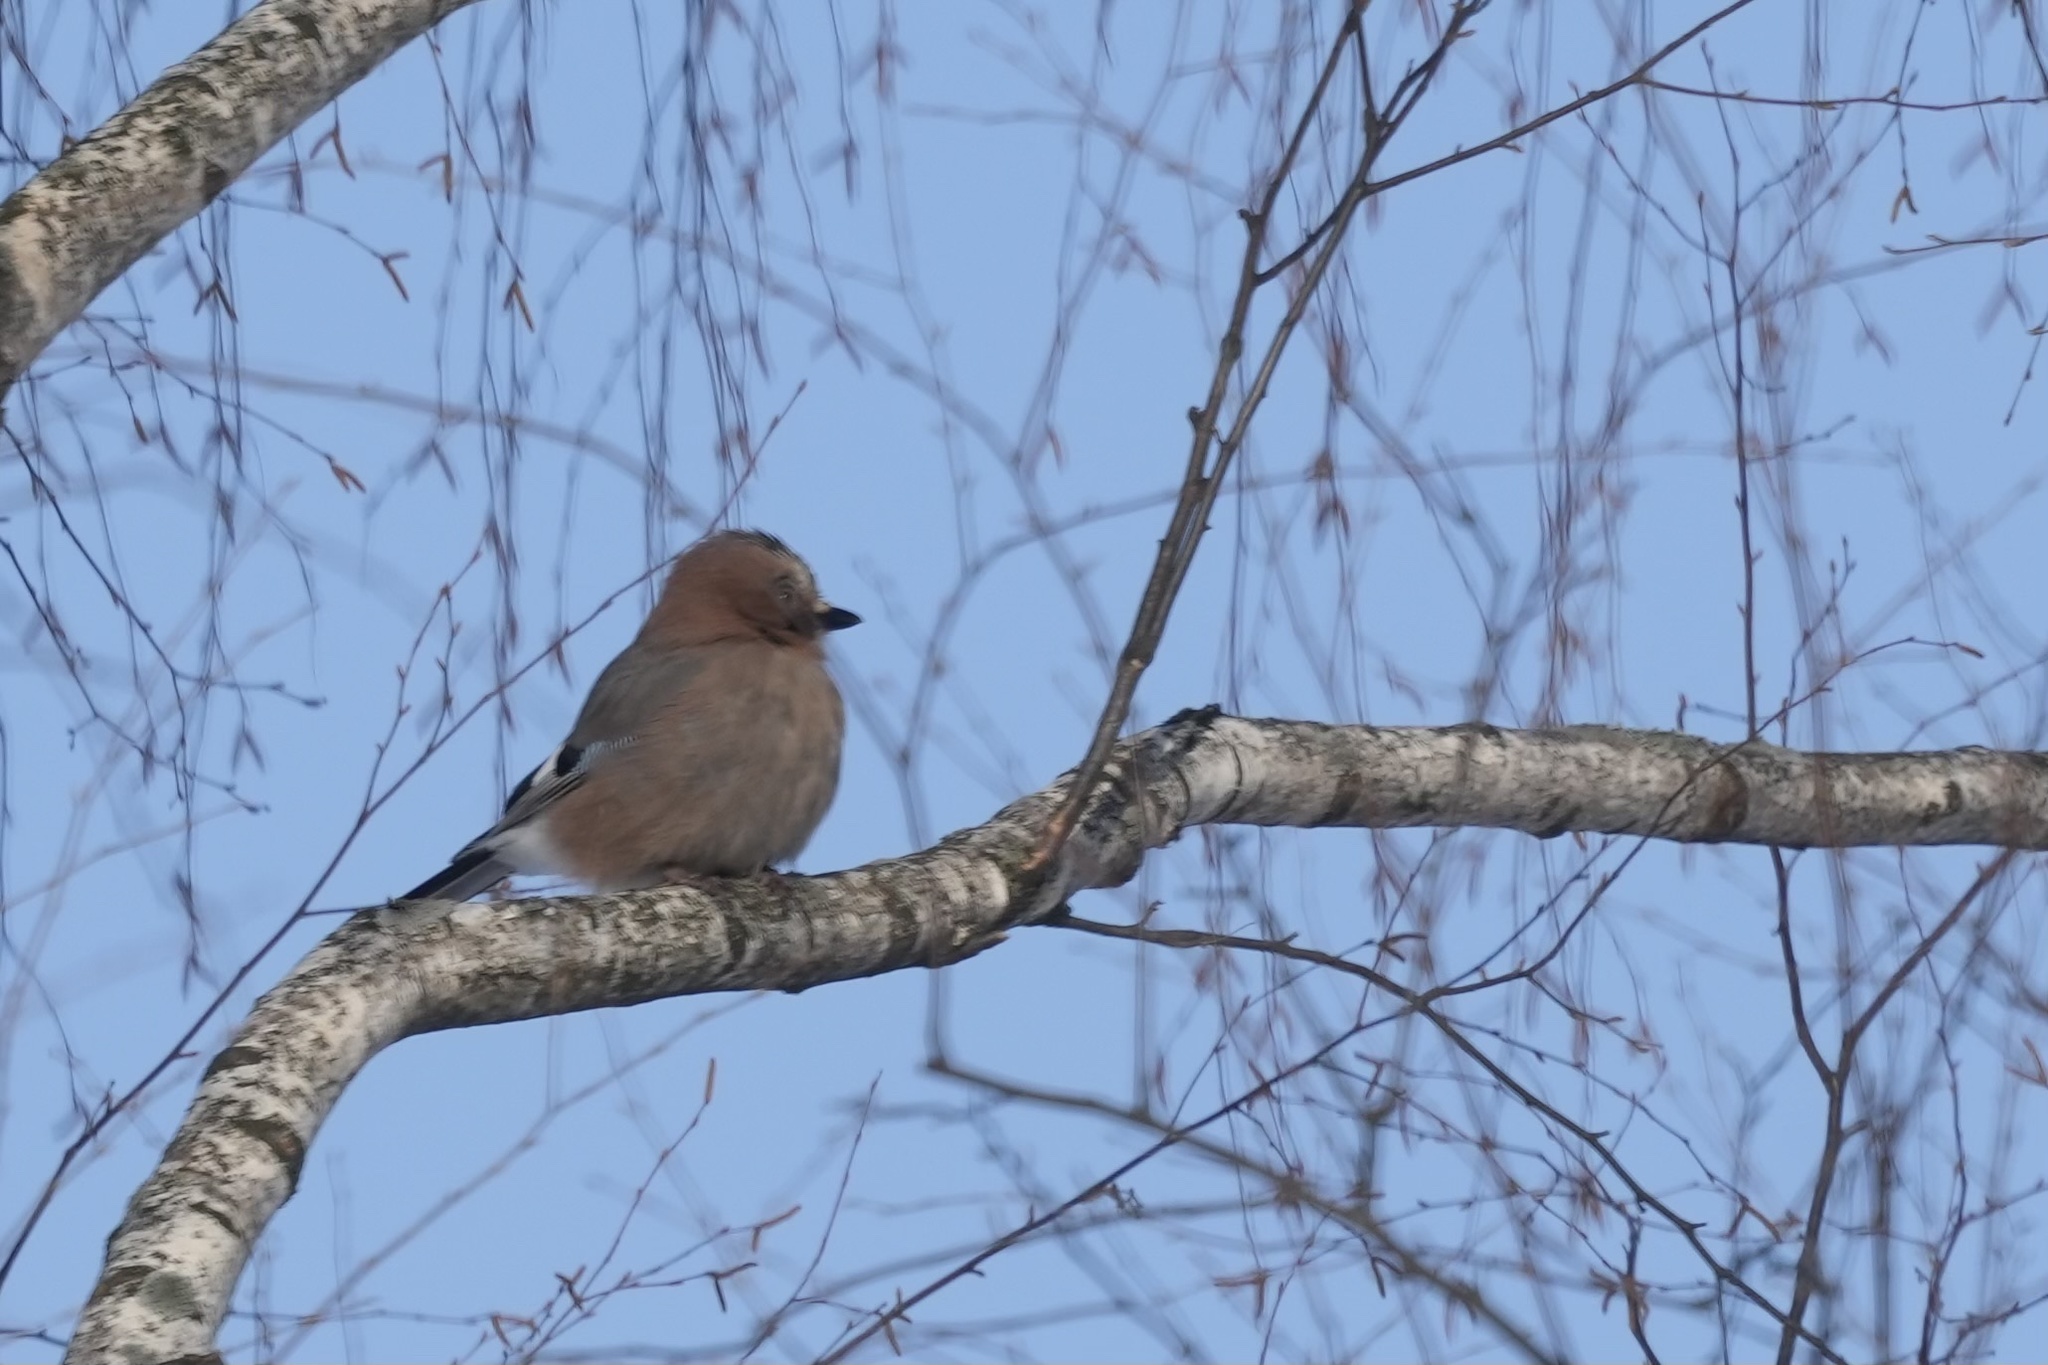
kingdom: Animalia
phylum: Chordata
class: Aves
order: Passeriformes
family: Corvidae
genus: Garrulus
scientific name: Garrulus glandarius
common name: Eurasian jay
